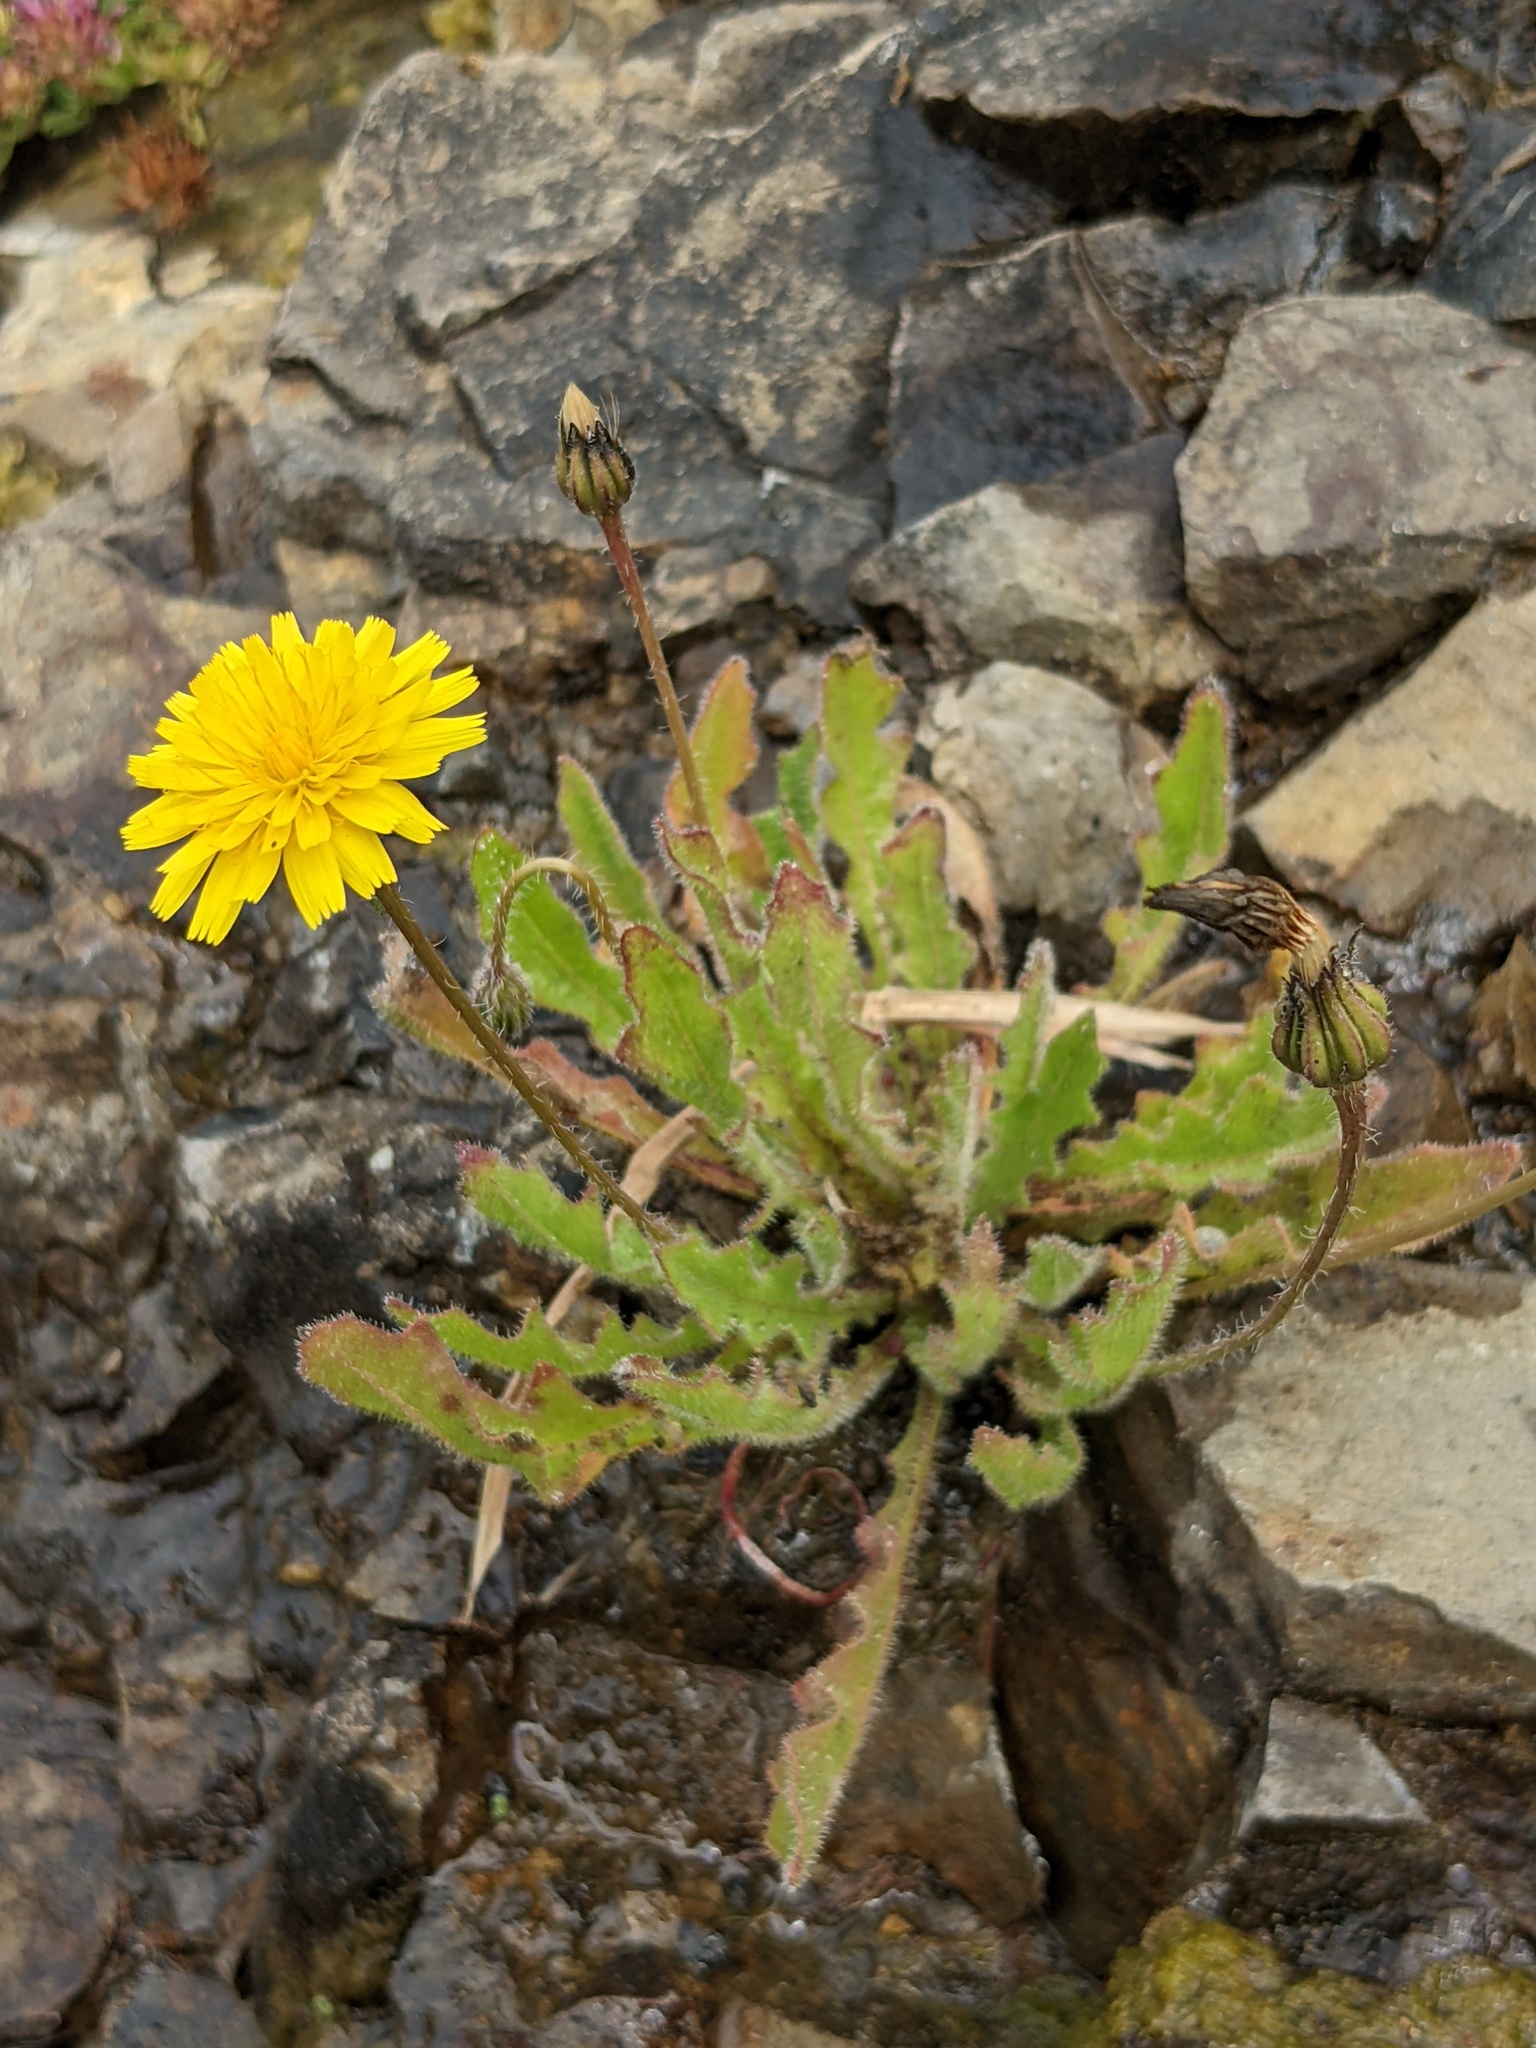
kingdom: Plantae
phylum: Tracheophyta
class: Magnoliopsida
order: Asterales
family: Asteraceae
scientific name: Asteraceae
